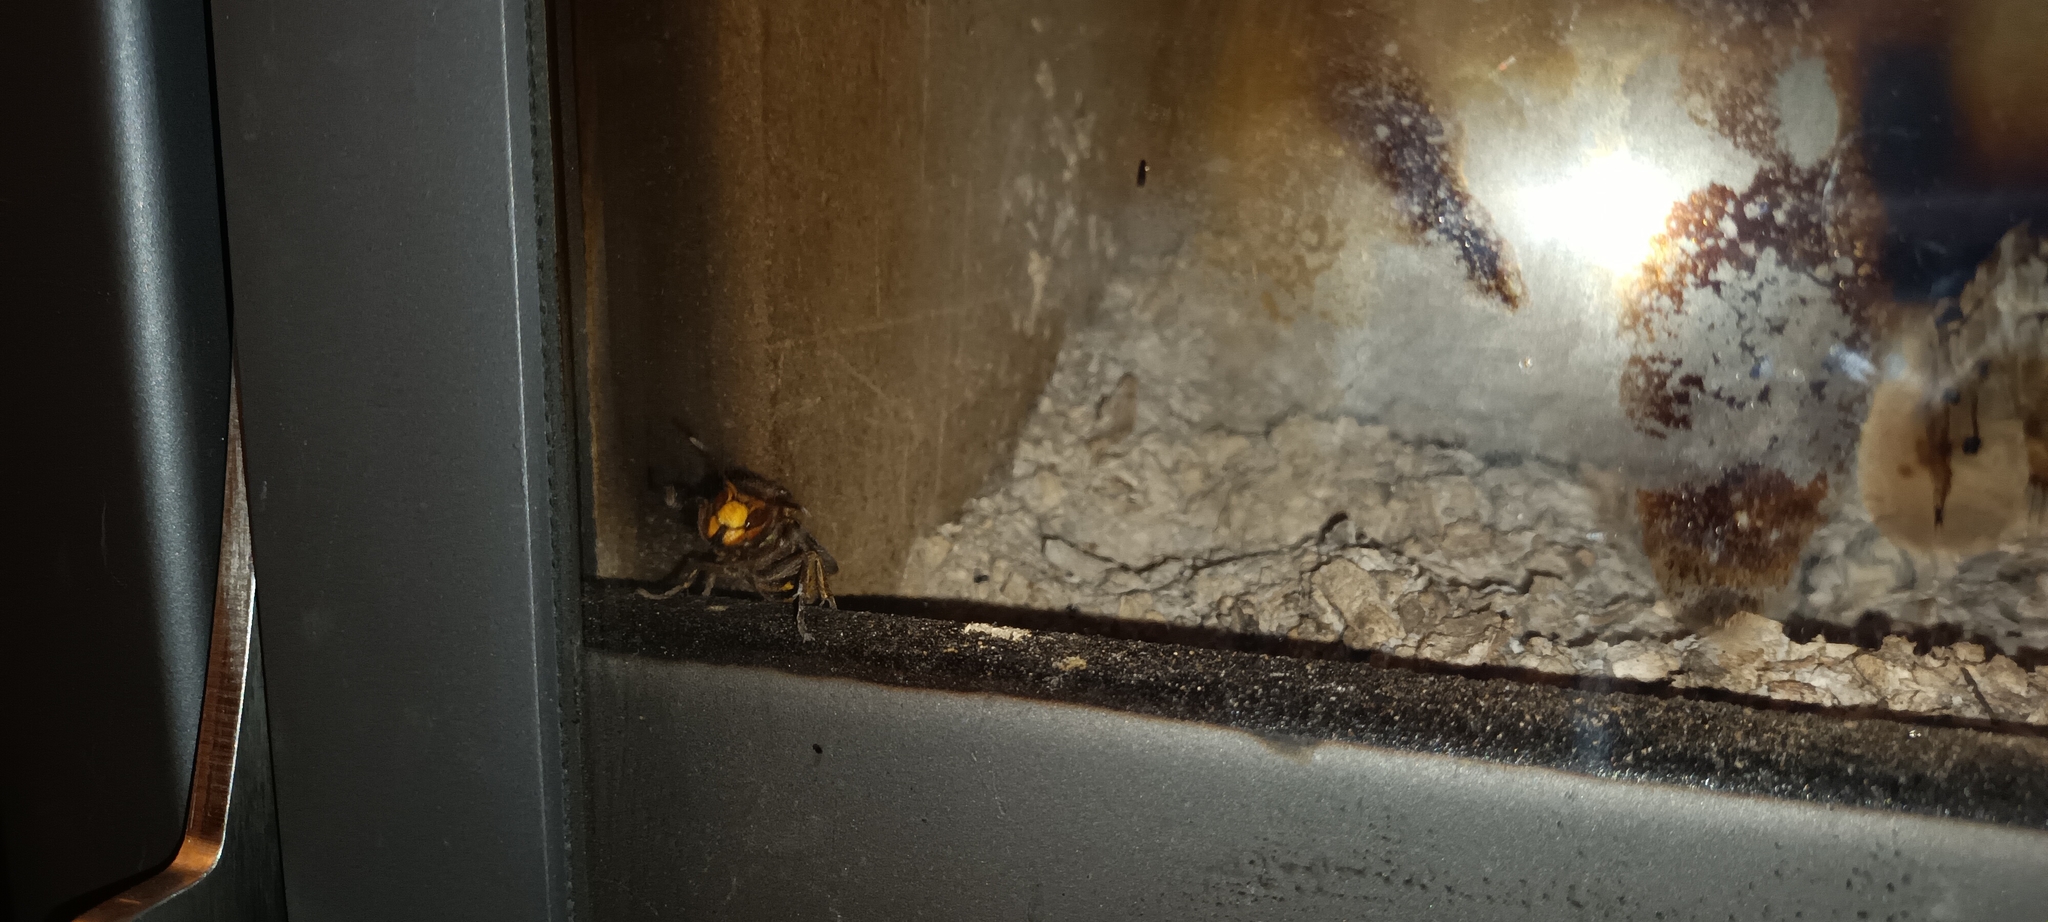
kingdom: Animalia
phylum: Arthropoda
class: Insecta
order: Hymenoptera
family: Vespidae
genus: Vespa
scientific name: Vespa crabro
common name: Hornet
